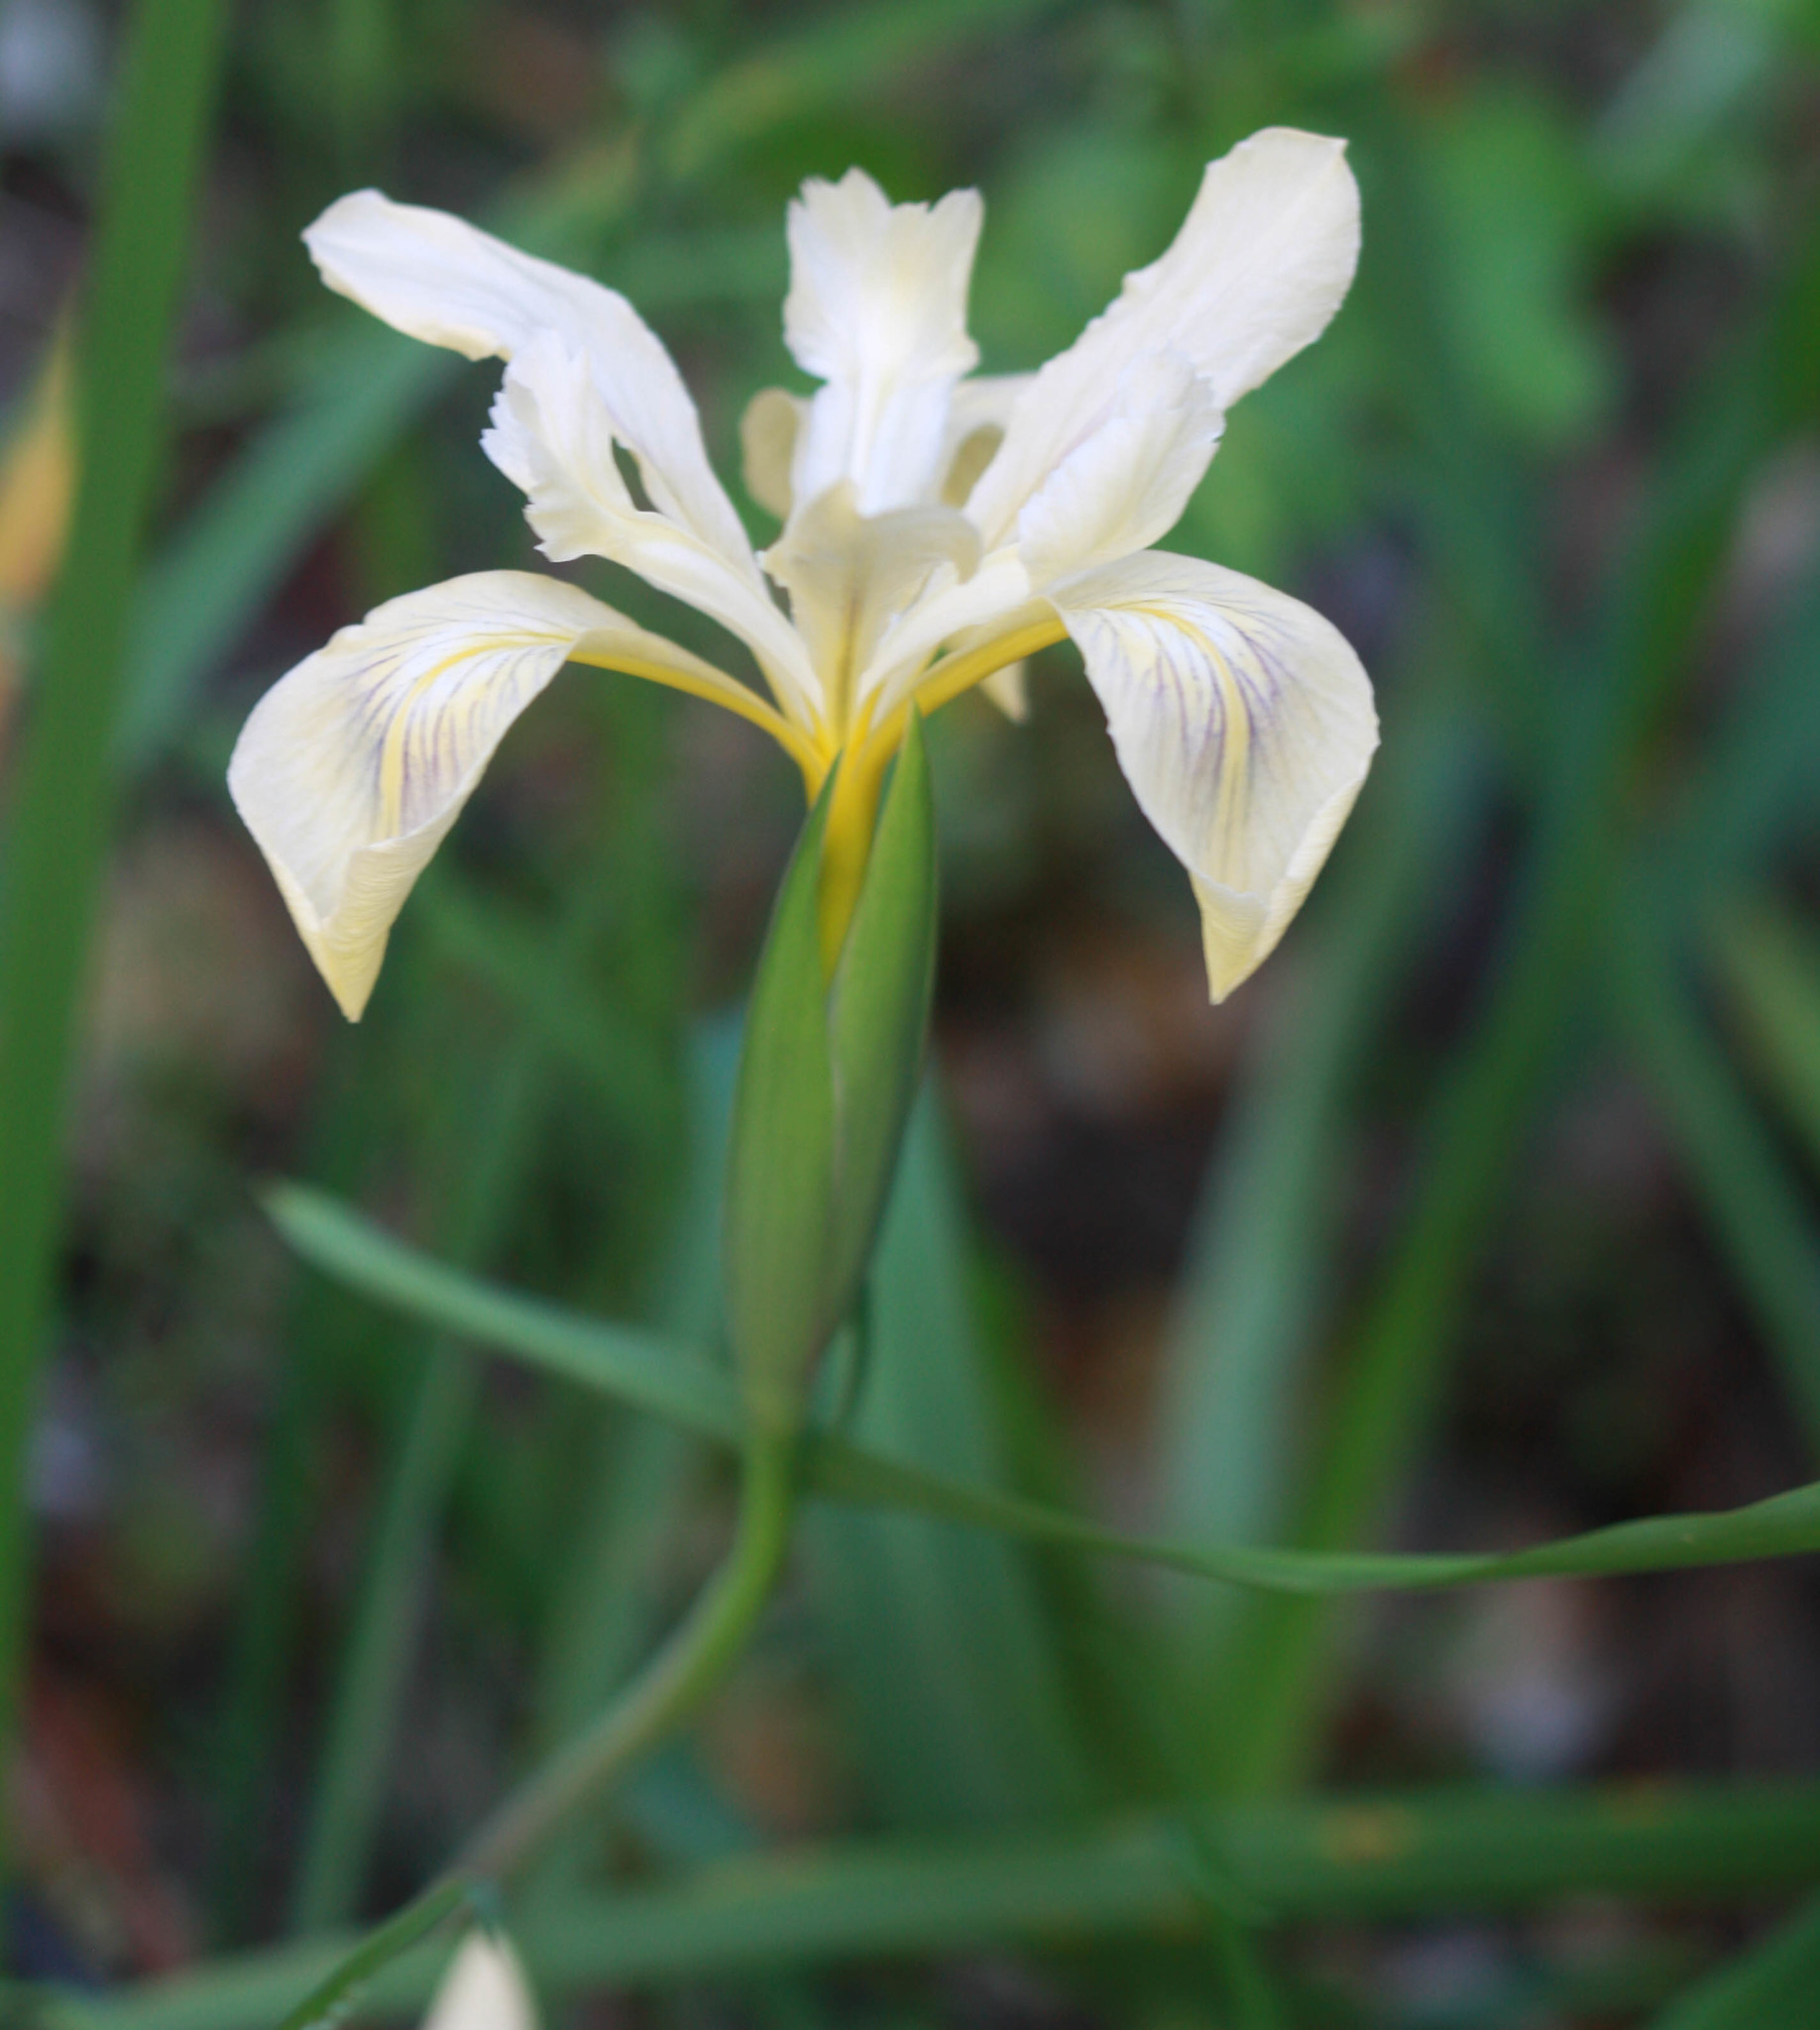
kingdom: Plantae
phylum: Tracheophyta
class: Liliopsida
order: Asparagales
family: Iridaceae
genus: Iris
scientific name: Iris douglasiana
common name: Marin iris
